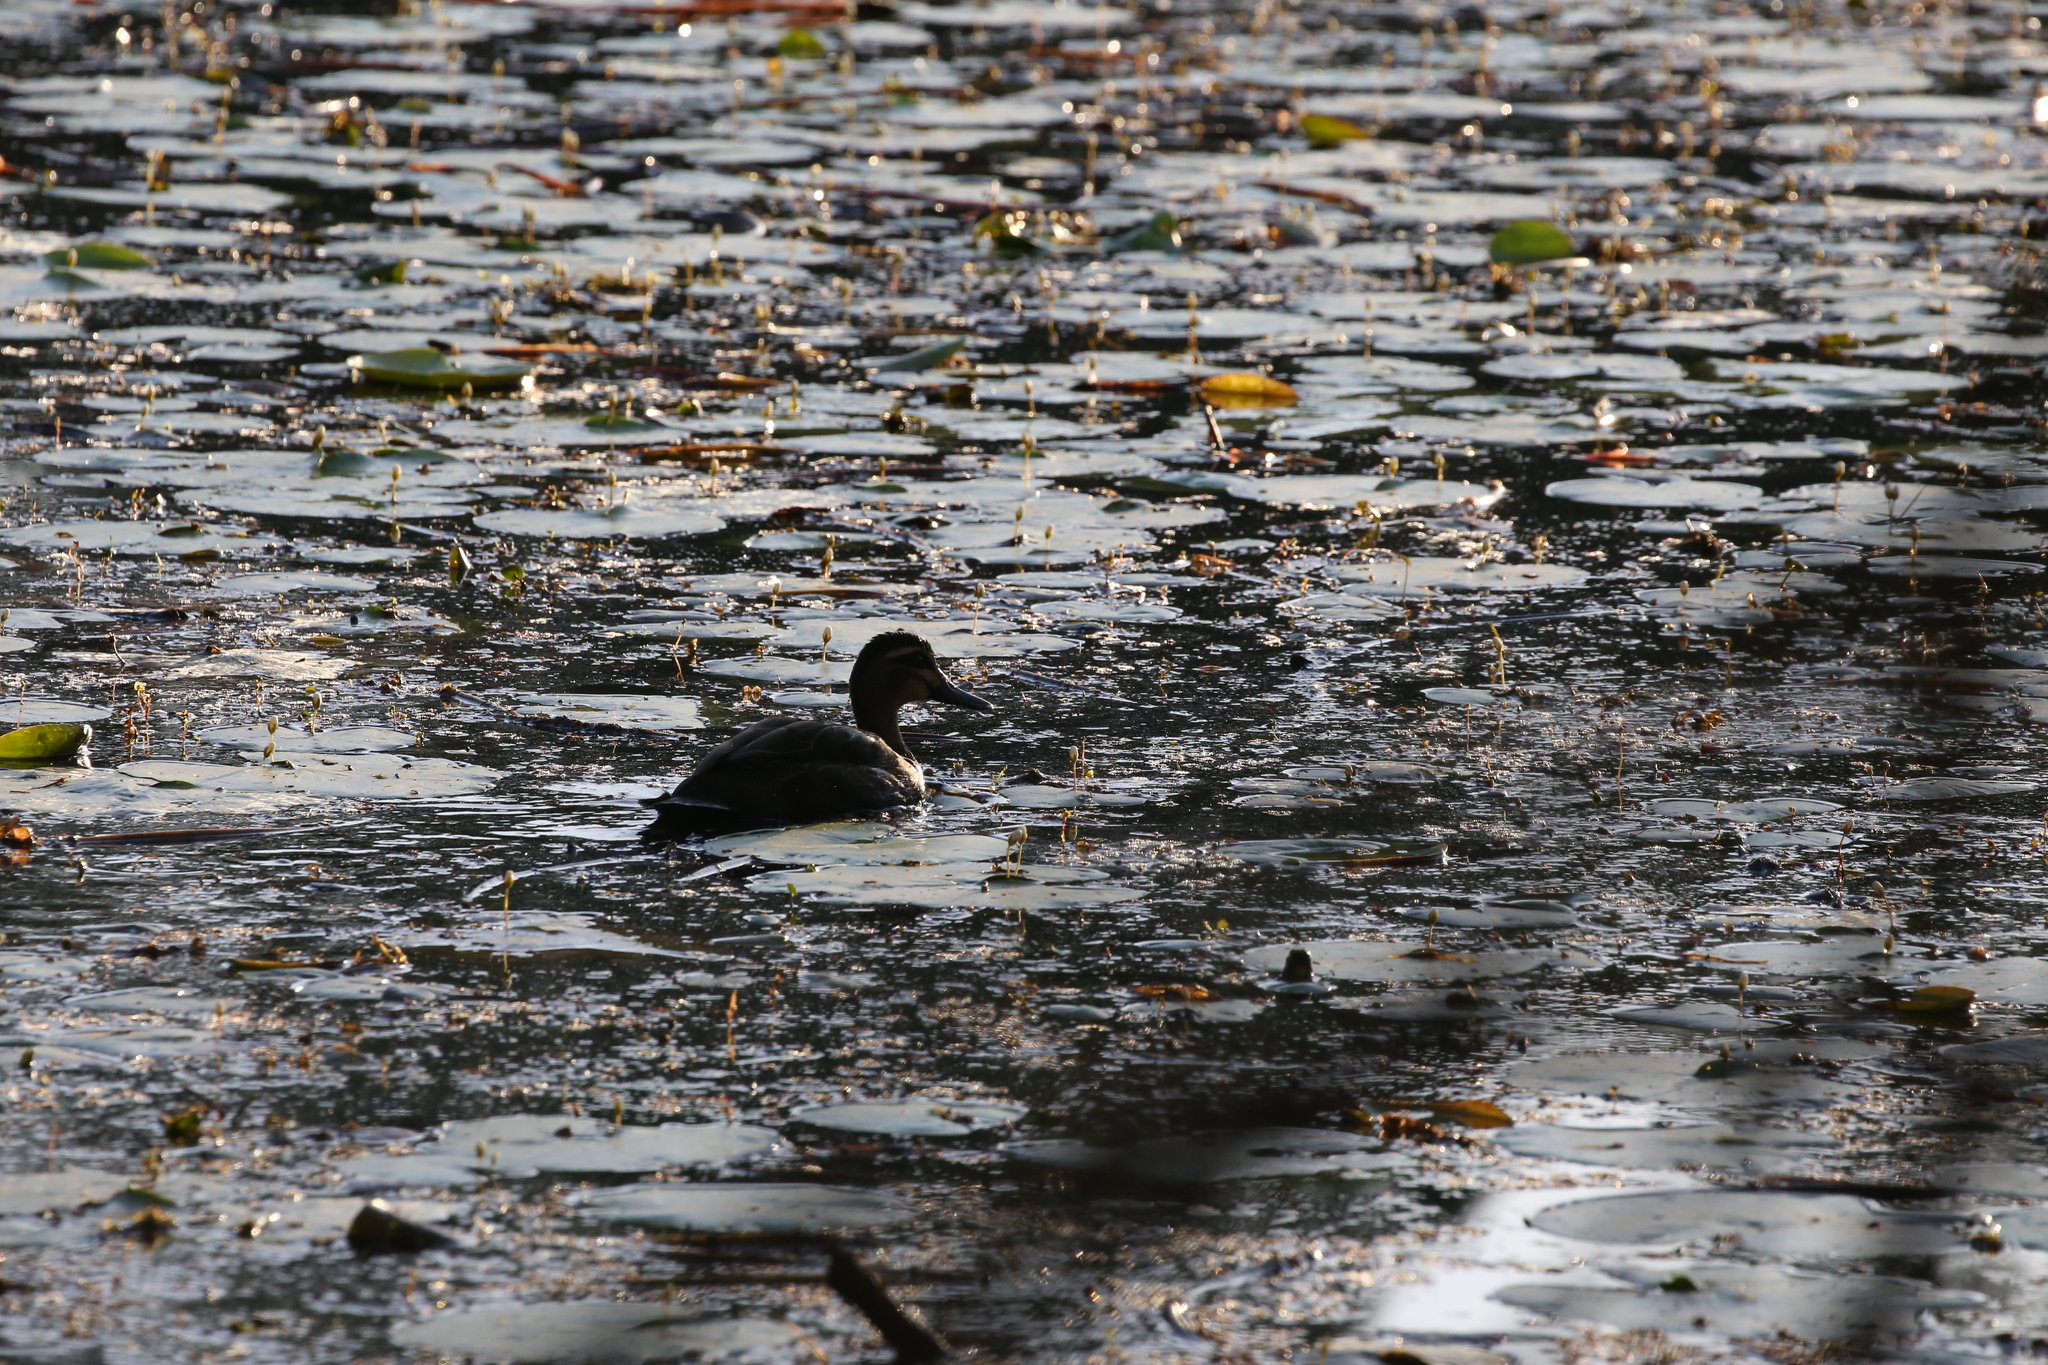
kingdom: Animalia
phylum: Chordata
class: Aves
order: Anseriformes
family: Anatidae
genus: Anas
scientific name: Anas superciliosa
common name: Pacific black duck
